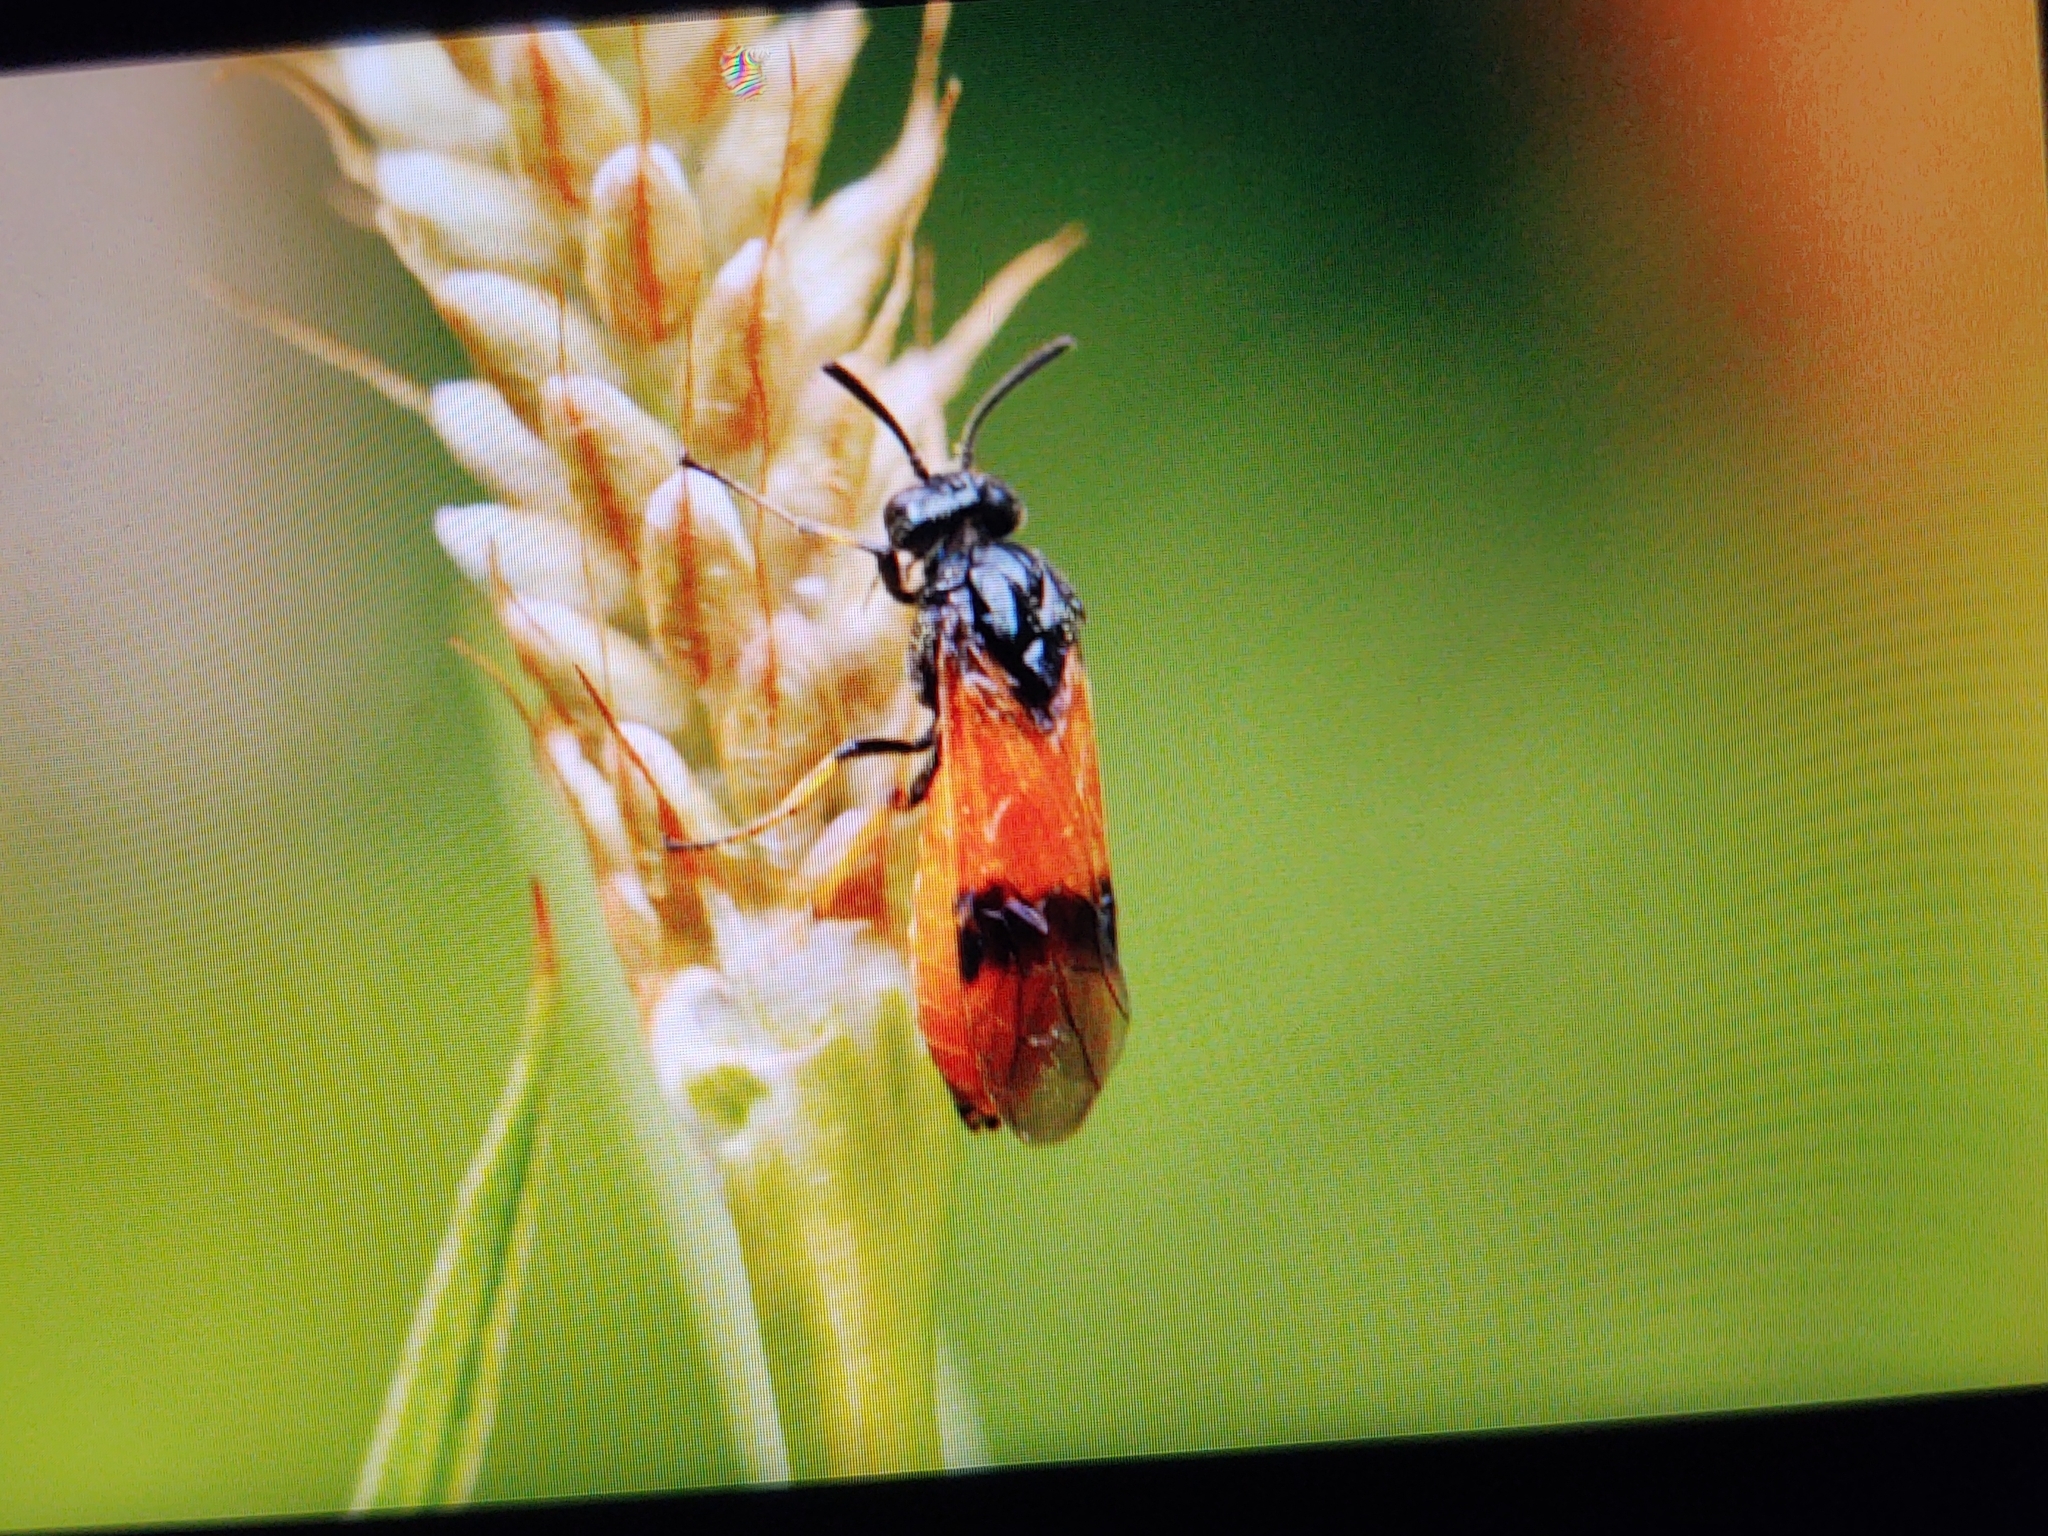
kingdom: Animalia
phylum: Arthropoda
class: Insecta
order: Hymenoptera
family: Argidae
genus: Arge
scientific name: Arge cyanocrocea
